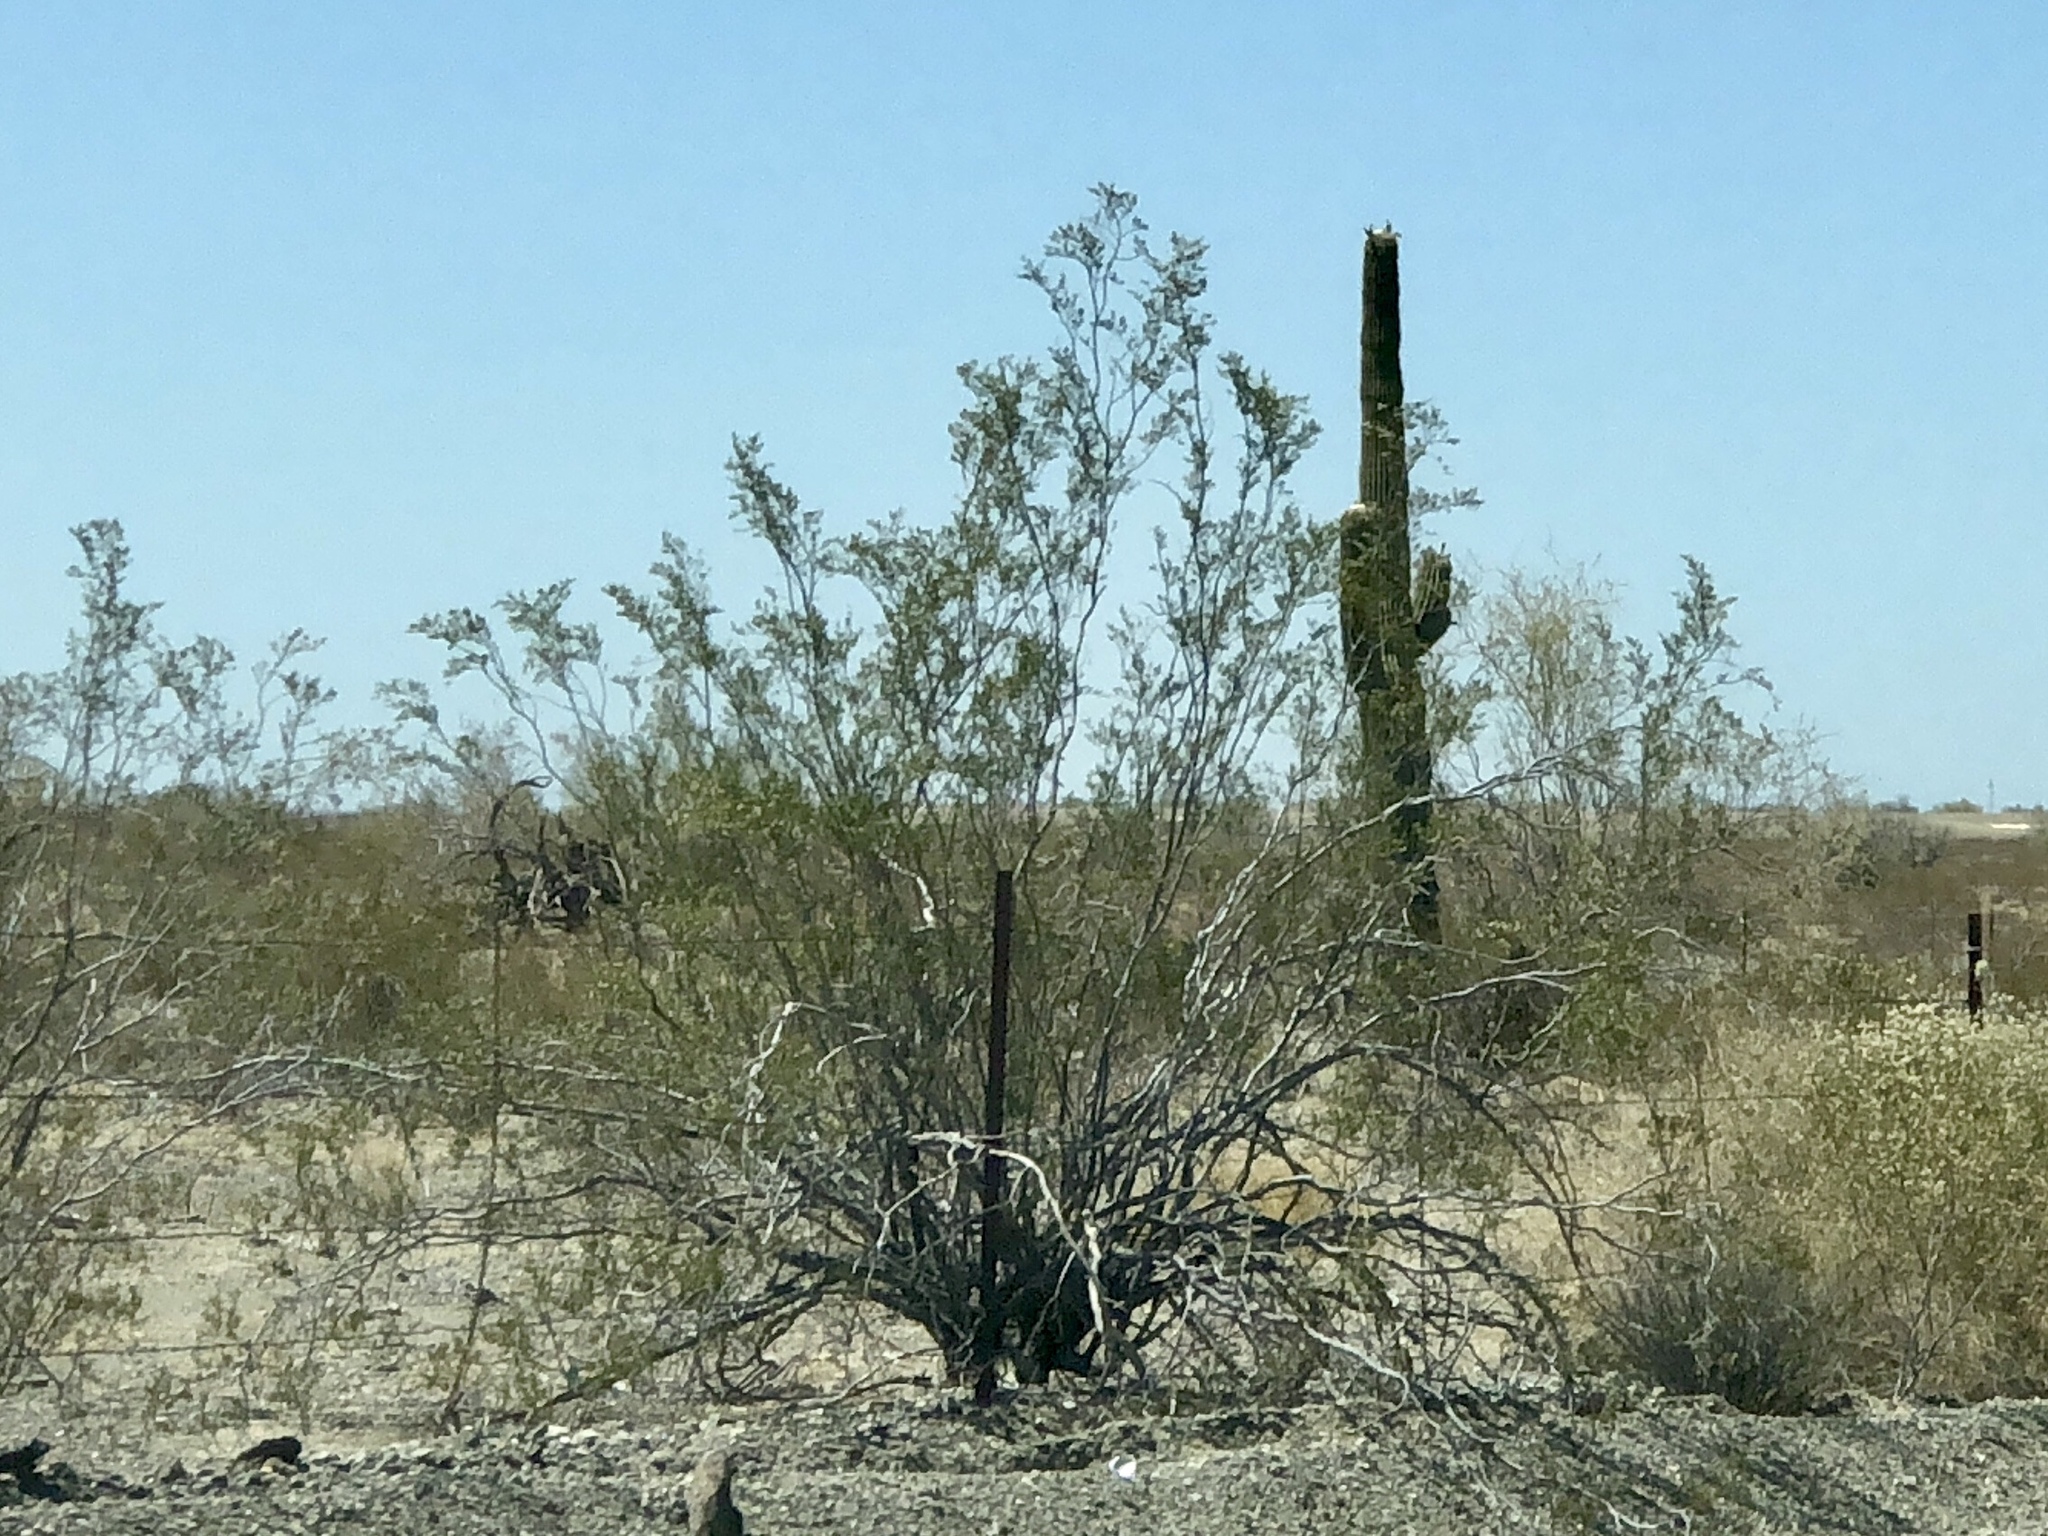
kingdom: Plantae
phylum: Tracheophyta
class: Magnoliopsida
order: Zygophyllales
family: Zygophyllaceae
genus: Larrea
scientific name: Larrea tridentata
